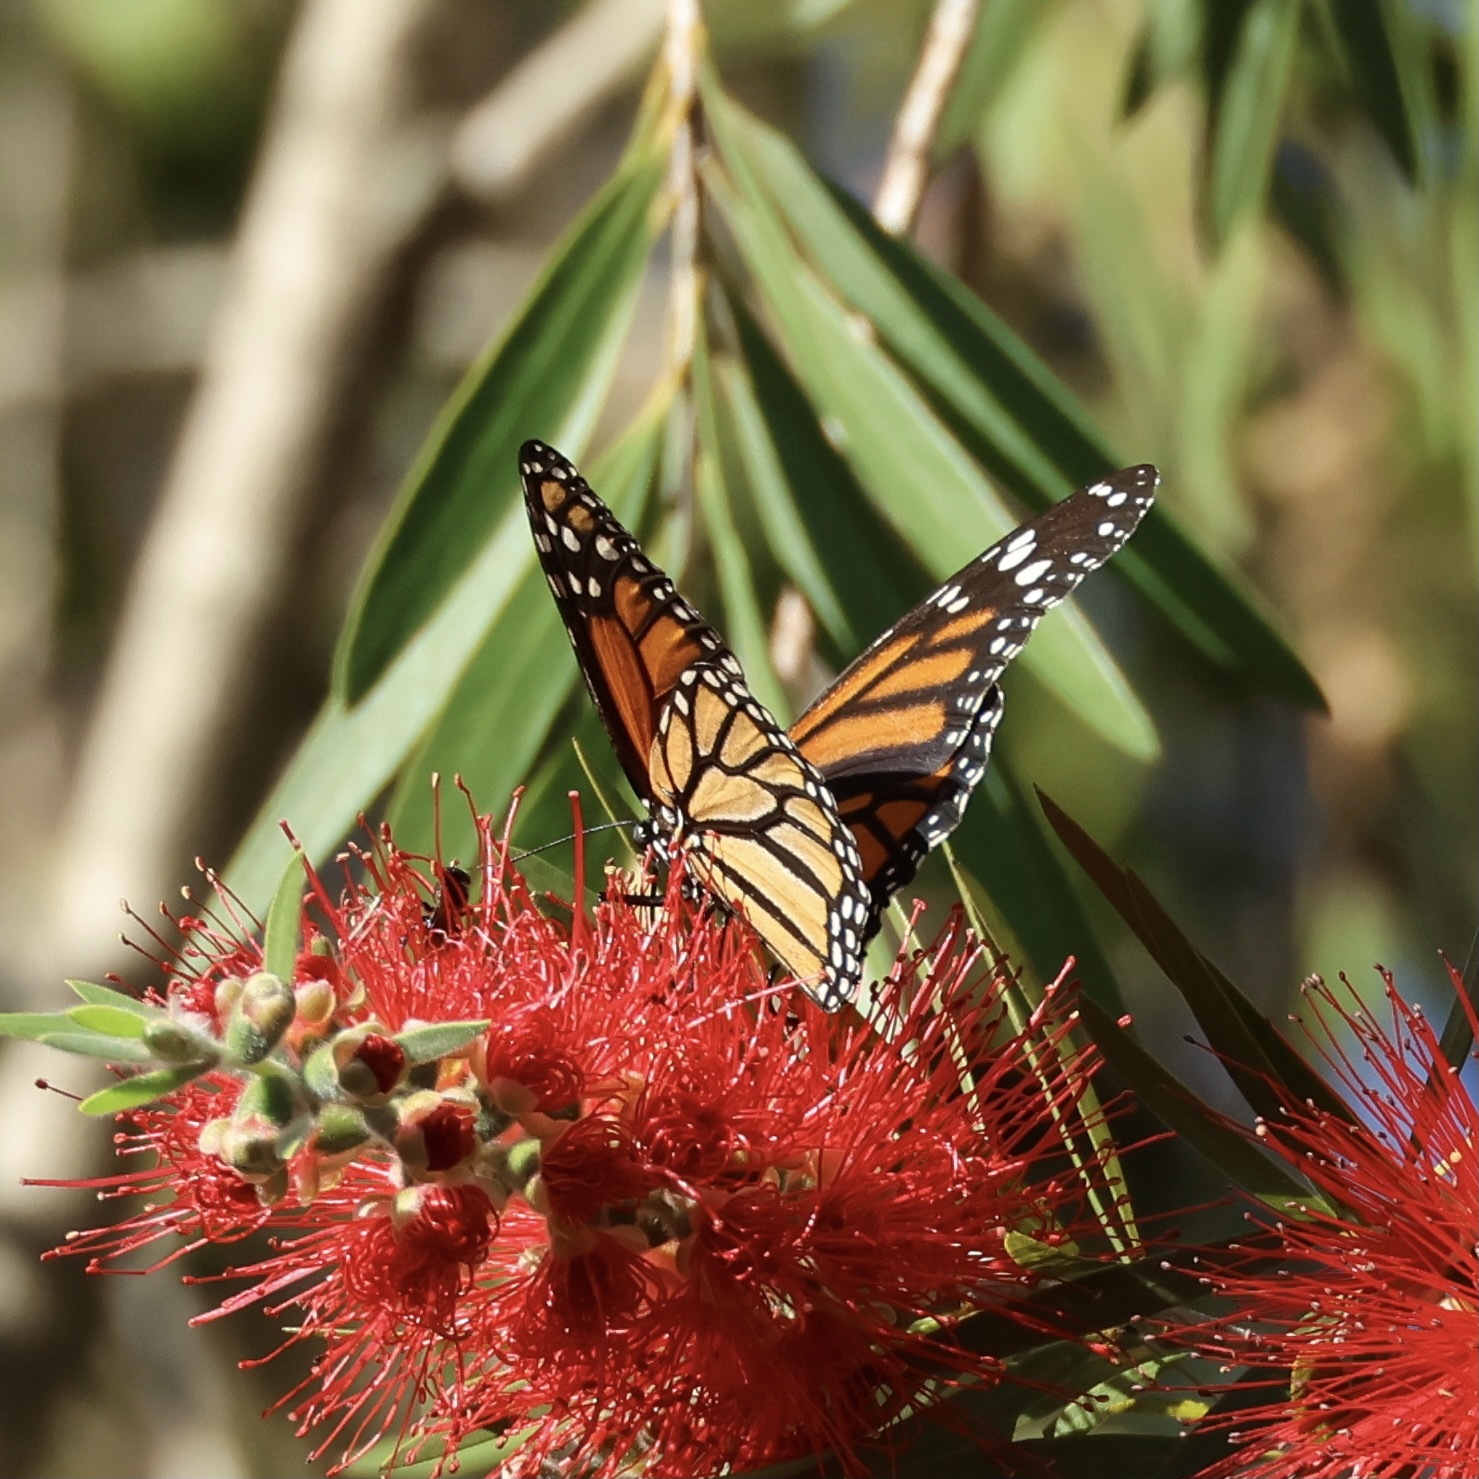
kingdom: Animalia
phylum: Arthropoda
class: Insecta
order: Lepidoptera
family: Nymphalidae
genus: Danaus
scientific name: Danaus plexippus
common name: Monarch
